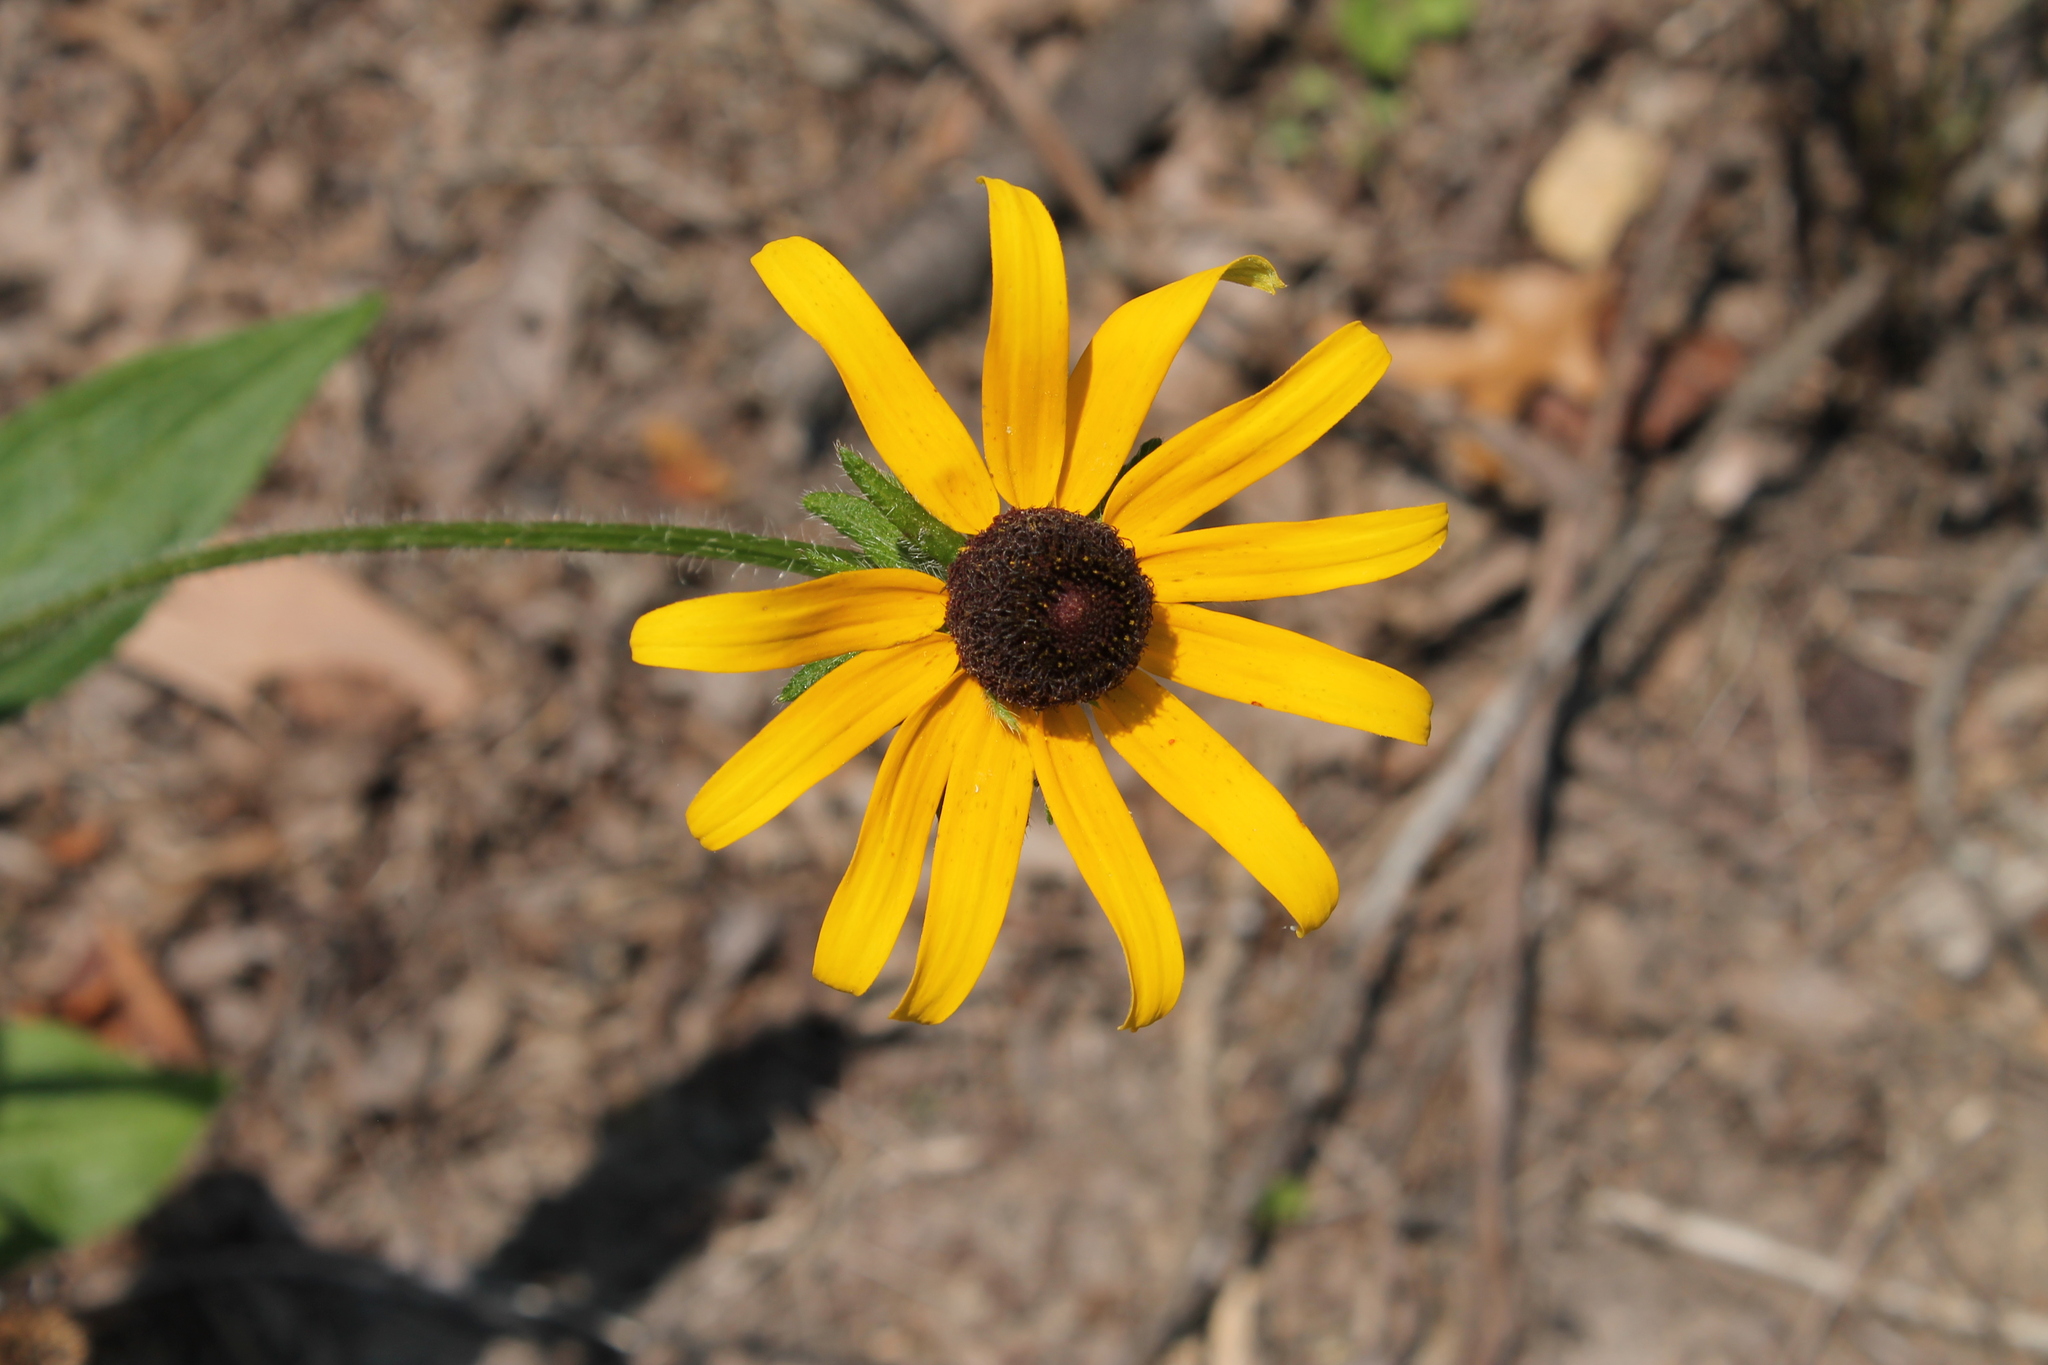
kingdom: Plantae
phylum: Tracheophyta
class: Magnoliopsida
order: Asterales
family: Asteraceae
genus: Rudbeckia
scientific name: Rudbeckia hirta
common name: Black-eyed-susan
